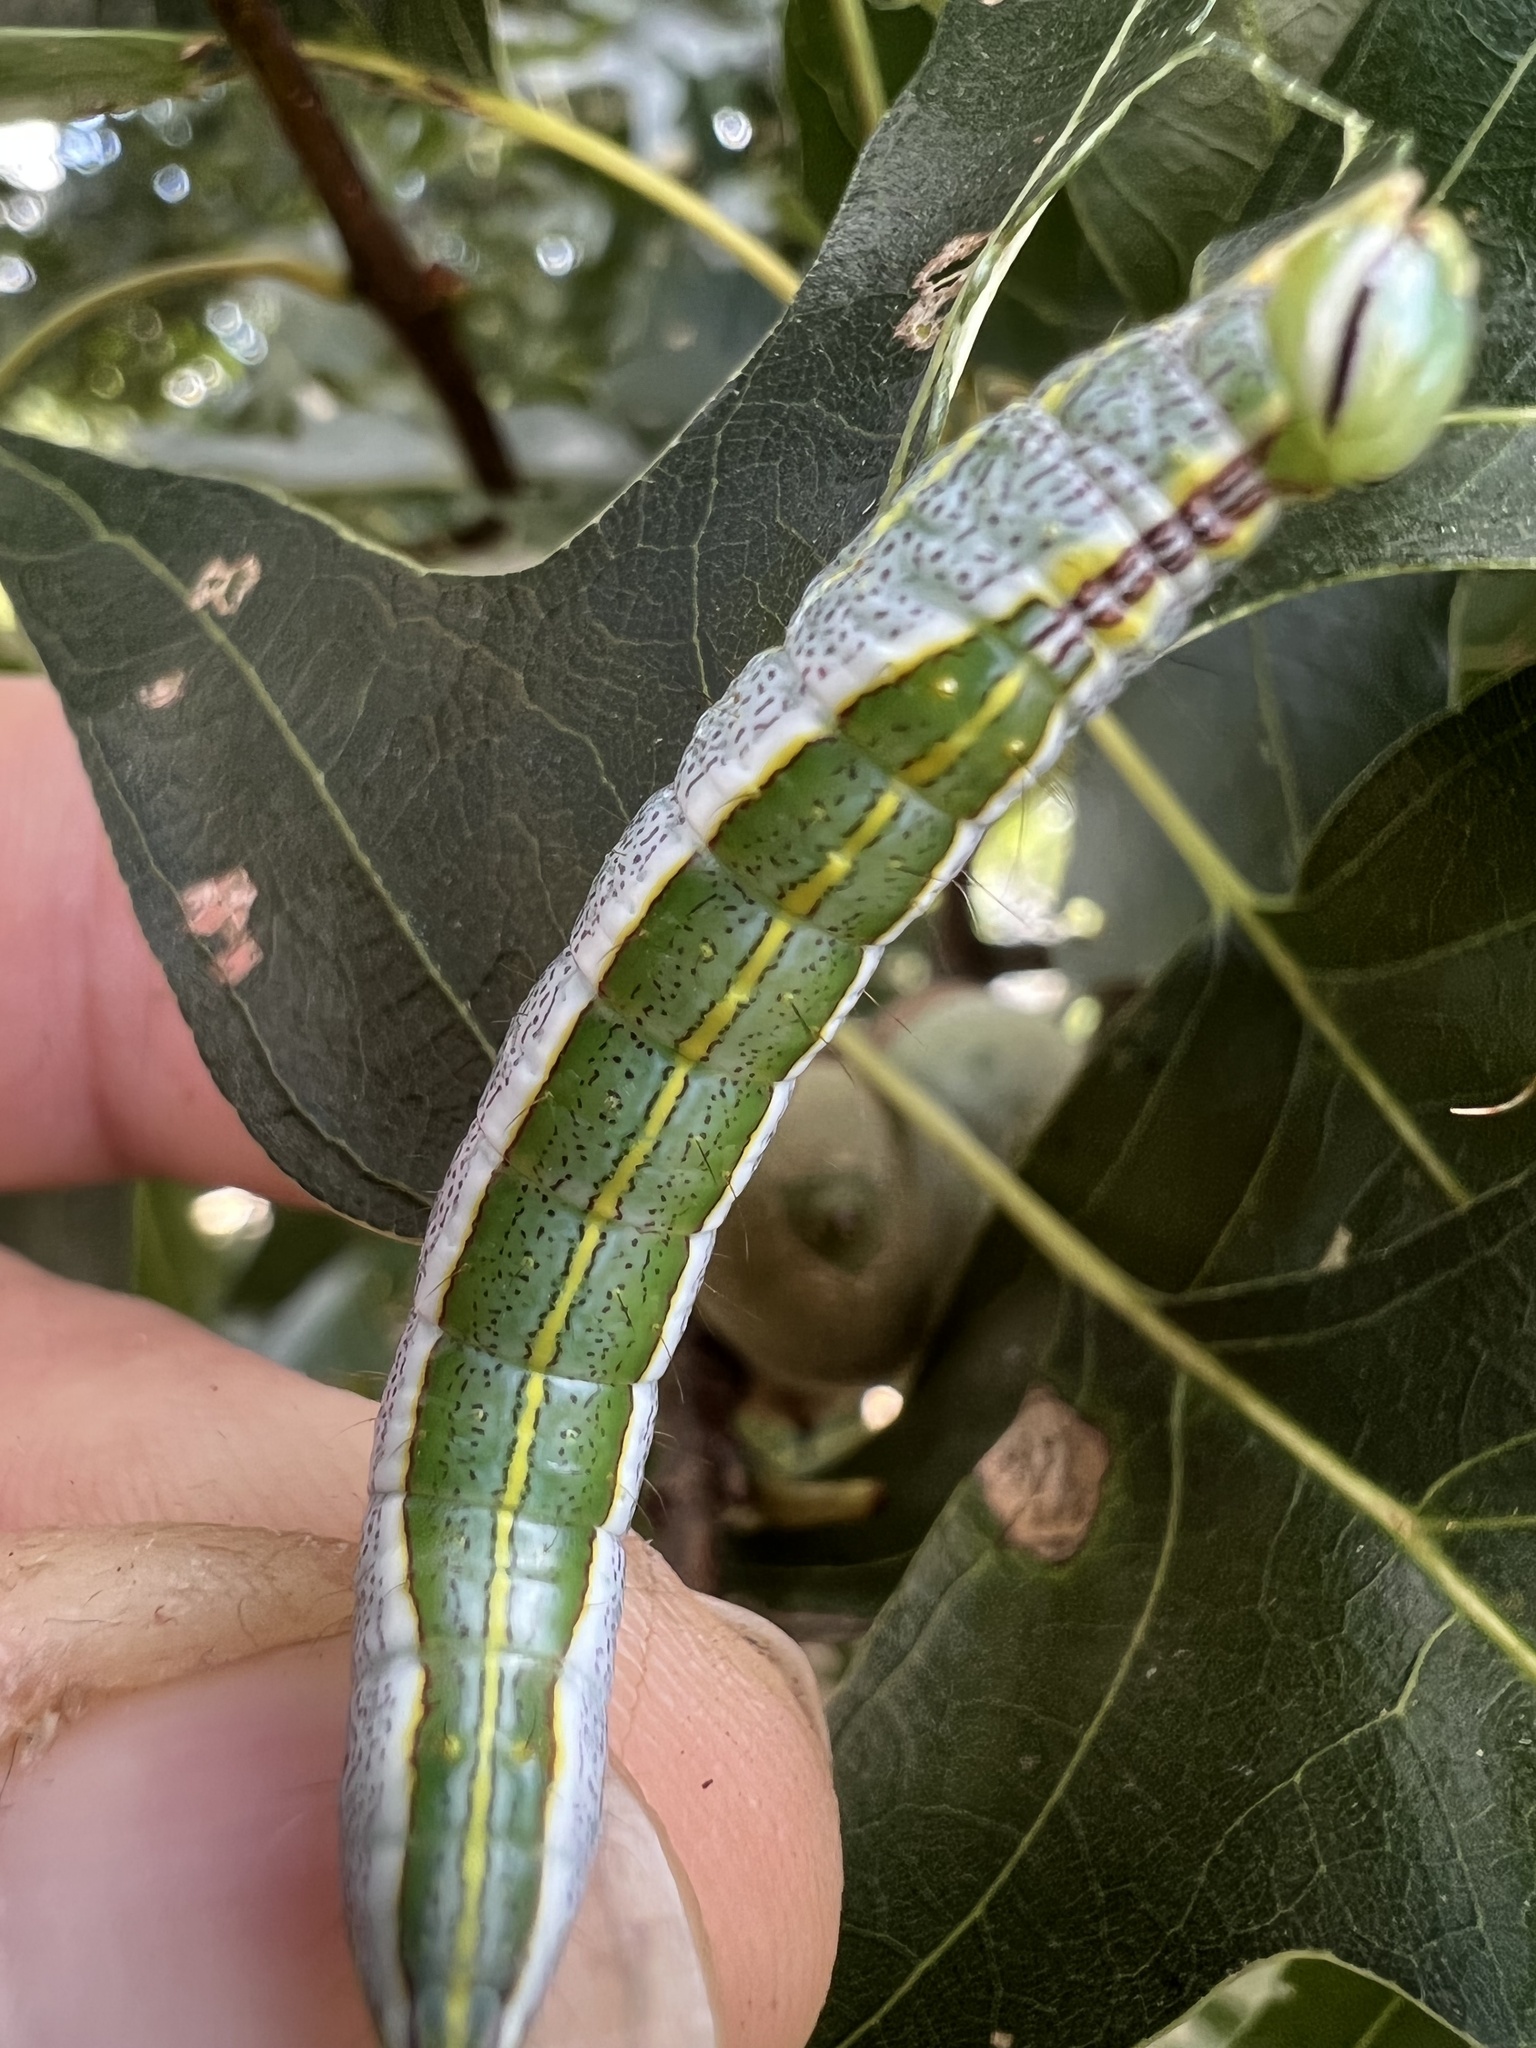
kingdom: Animalia
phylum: Arthropoda
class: Insecta
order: Lepidoptera
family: Notodontidae
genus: Lochmaeus
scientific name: Lochmaeus manteo
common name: Variable oakleaf caterpillar moth
